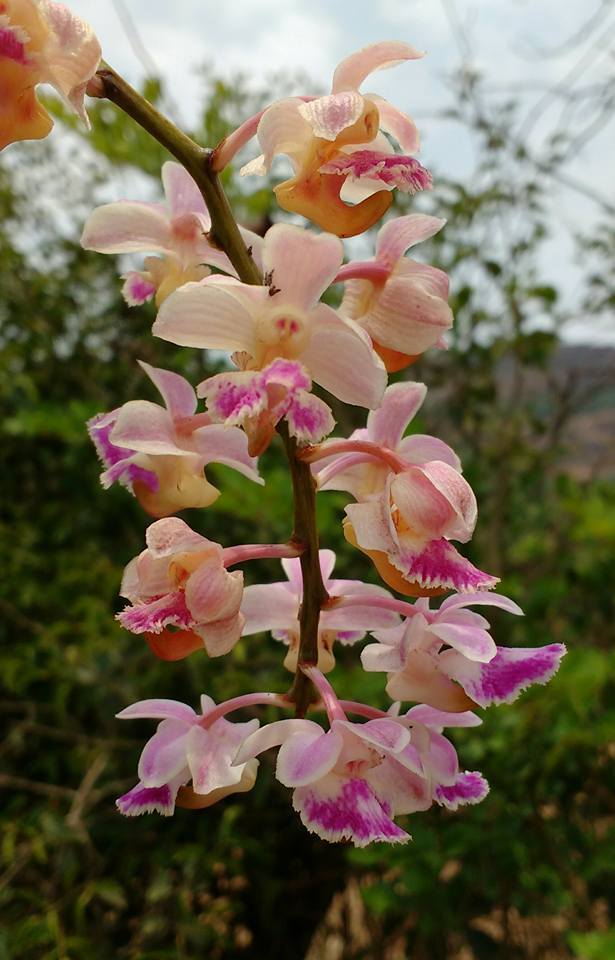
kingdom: Plantae
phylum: Tracheophyta
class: Liliopsida
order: Asparagales
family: Orchidaceae
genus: Aerides
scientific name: Aerides crispa
